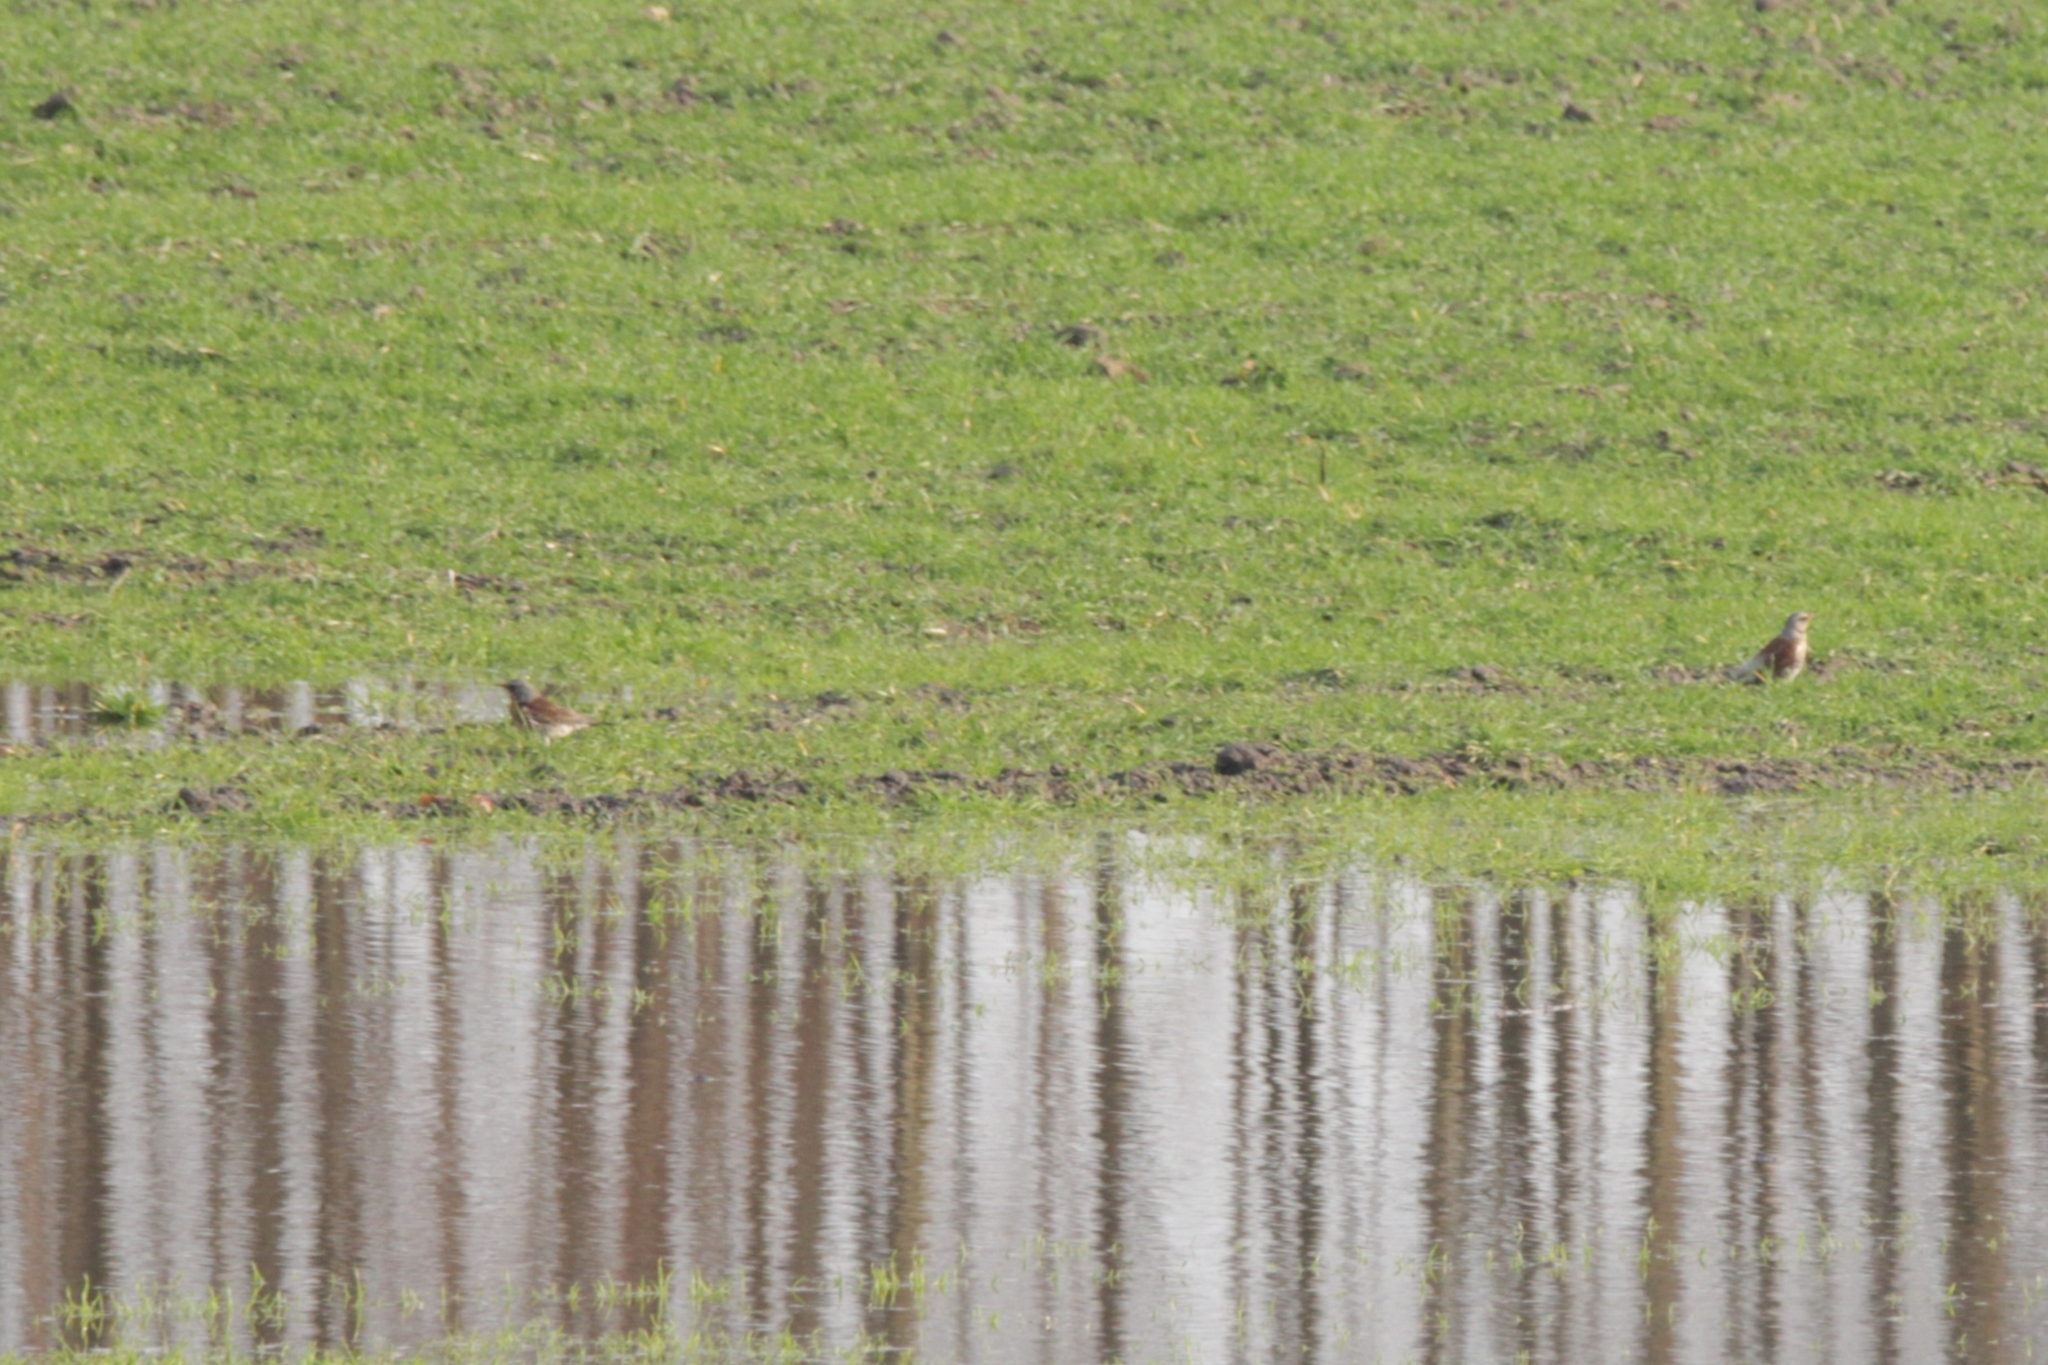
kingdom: Animalia
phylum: Chordata
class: Aves
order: Passeriformes
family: Turdidae
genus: Turdus
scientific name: Turdus pilaris
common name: Fieldfare
